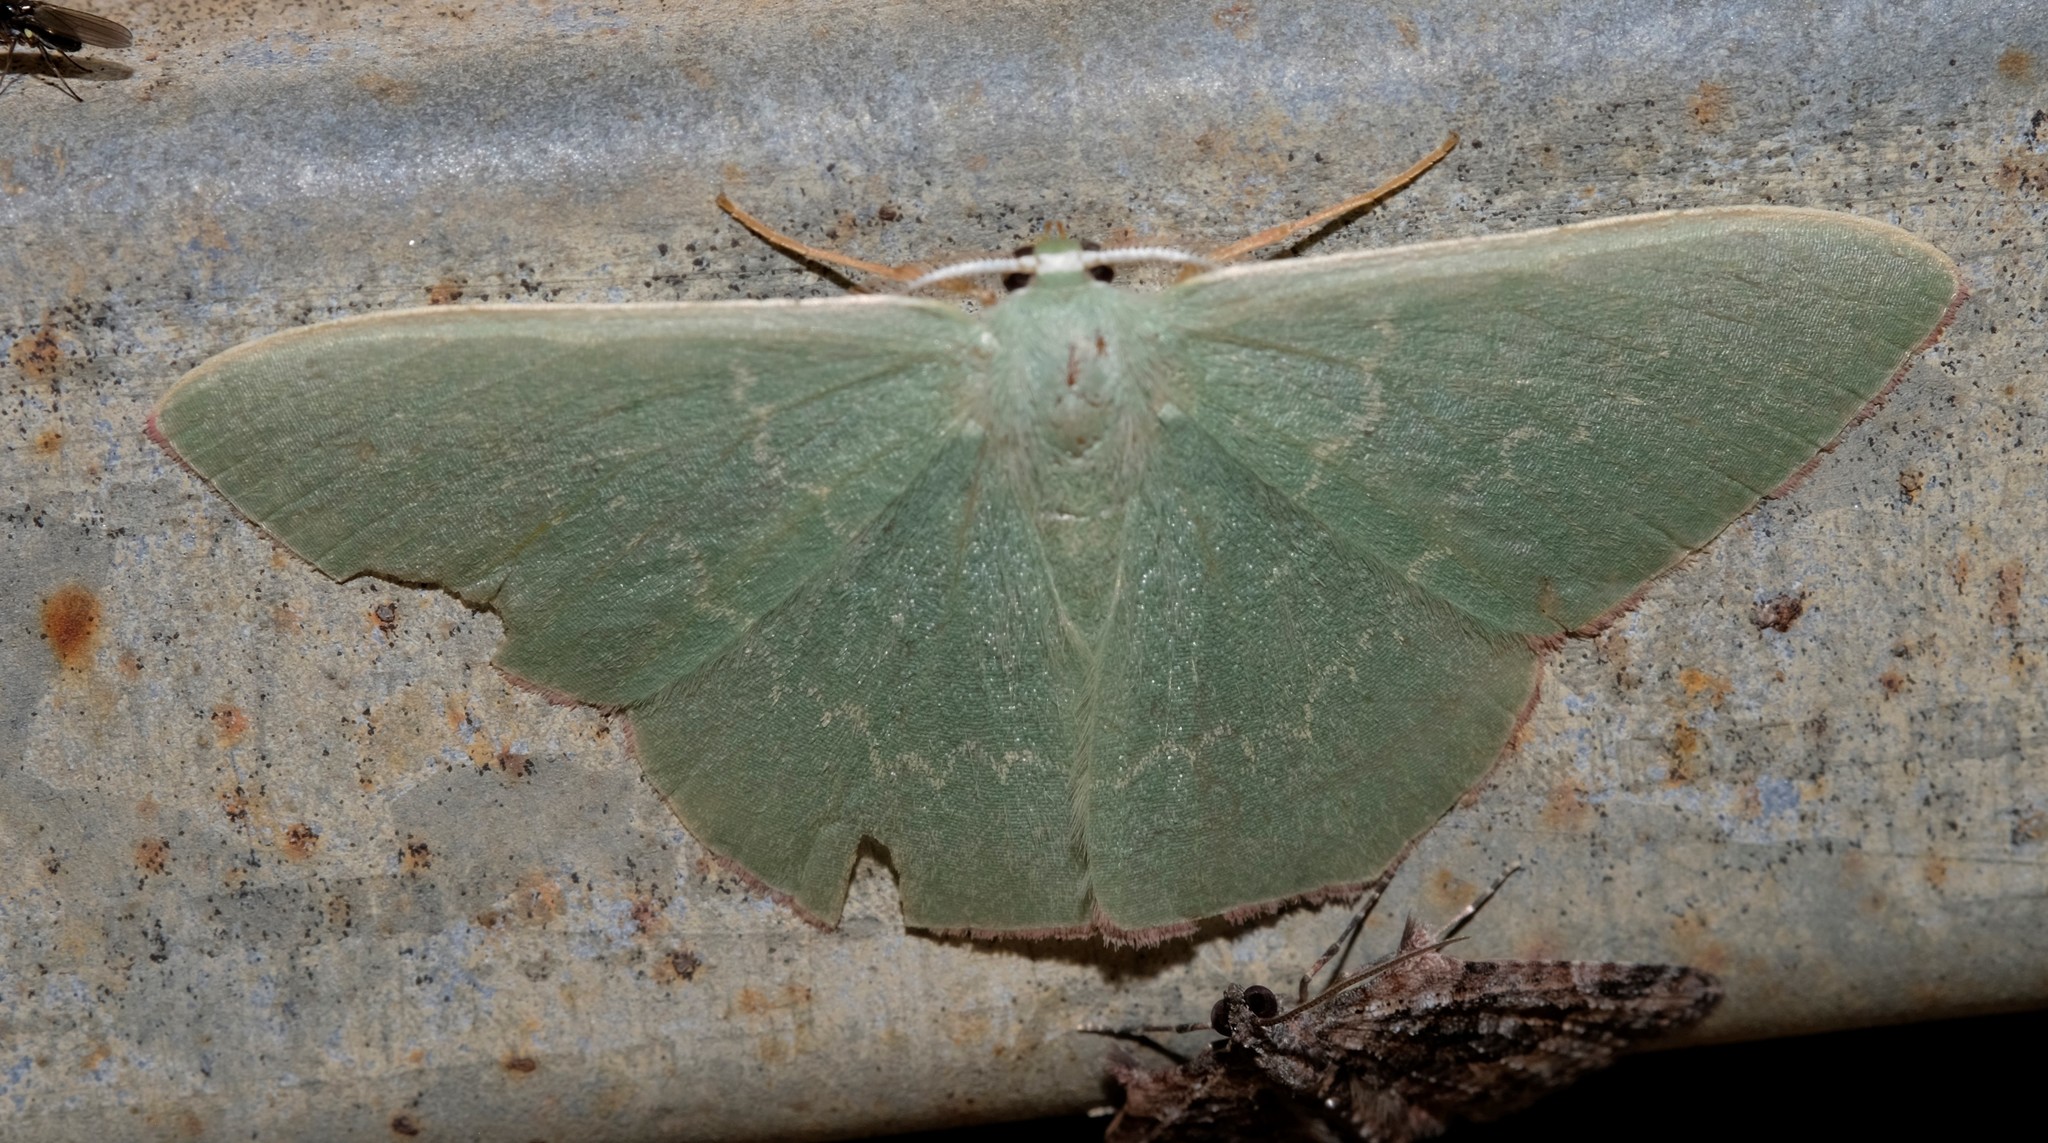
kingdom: Animalia
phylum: Arthropoda
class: Insecta
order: Lepidoptera
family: Geometridae
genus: Prasinocyma
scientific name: Prasinocyma semicrocea
